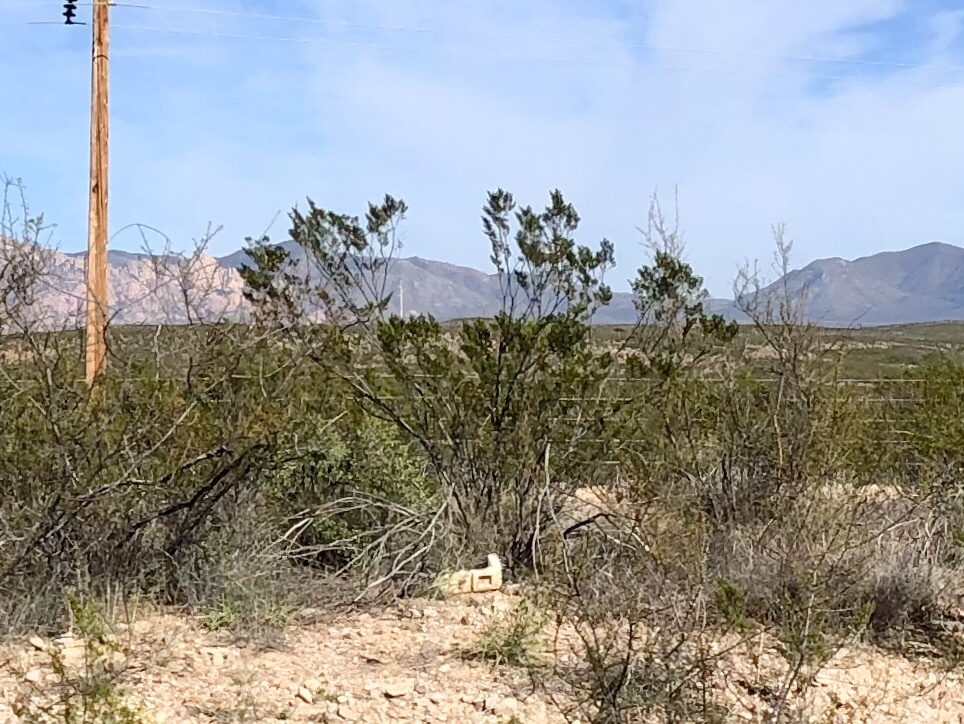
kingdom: Plantae
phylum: Tracheophyta
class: Magnoliopsida
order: Zygophyllales
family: Zygophyllaceae
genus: Larrea
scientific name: Larrea tridentata
